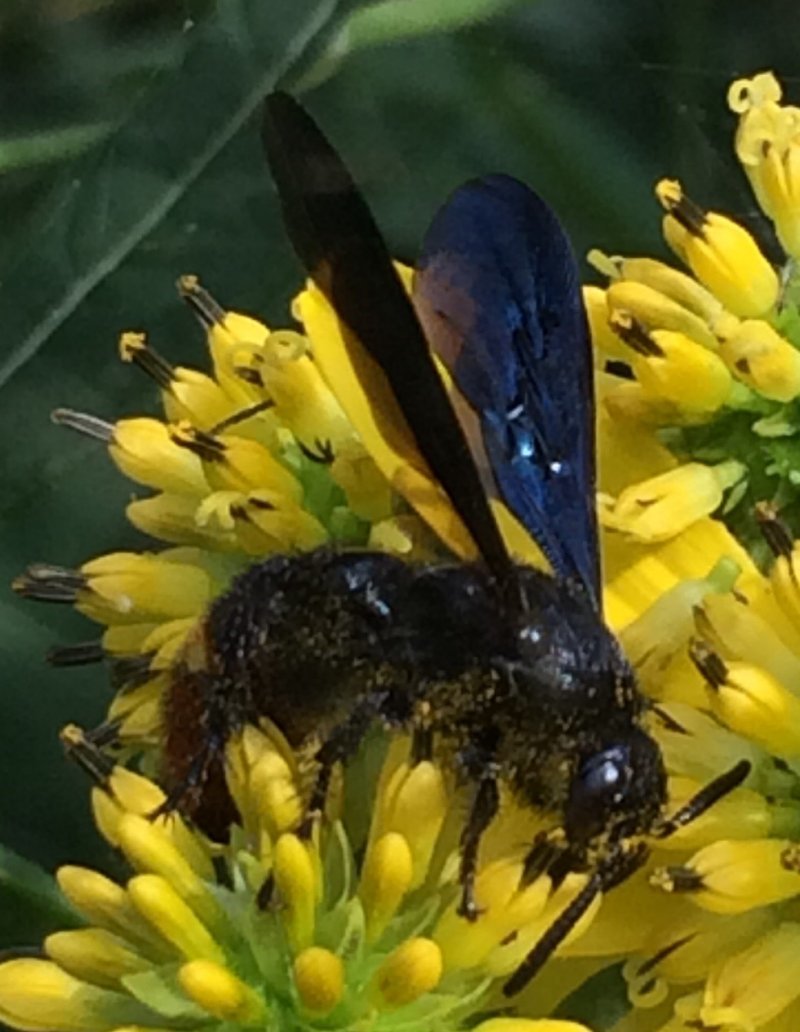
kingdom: Animalia
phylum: Arthropoda
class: Insecta
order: Hymenoptera
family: Scoliidae
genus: Scolia
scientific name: Scolia dubia
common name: Blue-winged scoliid wasp
